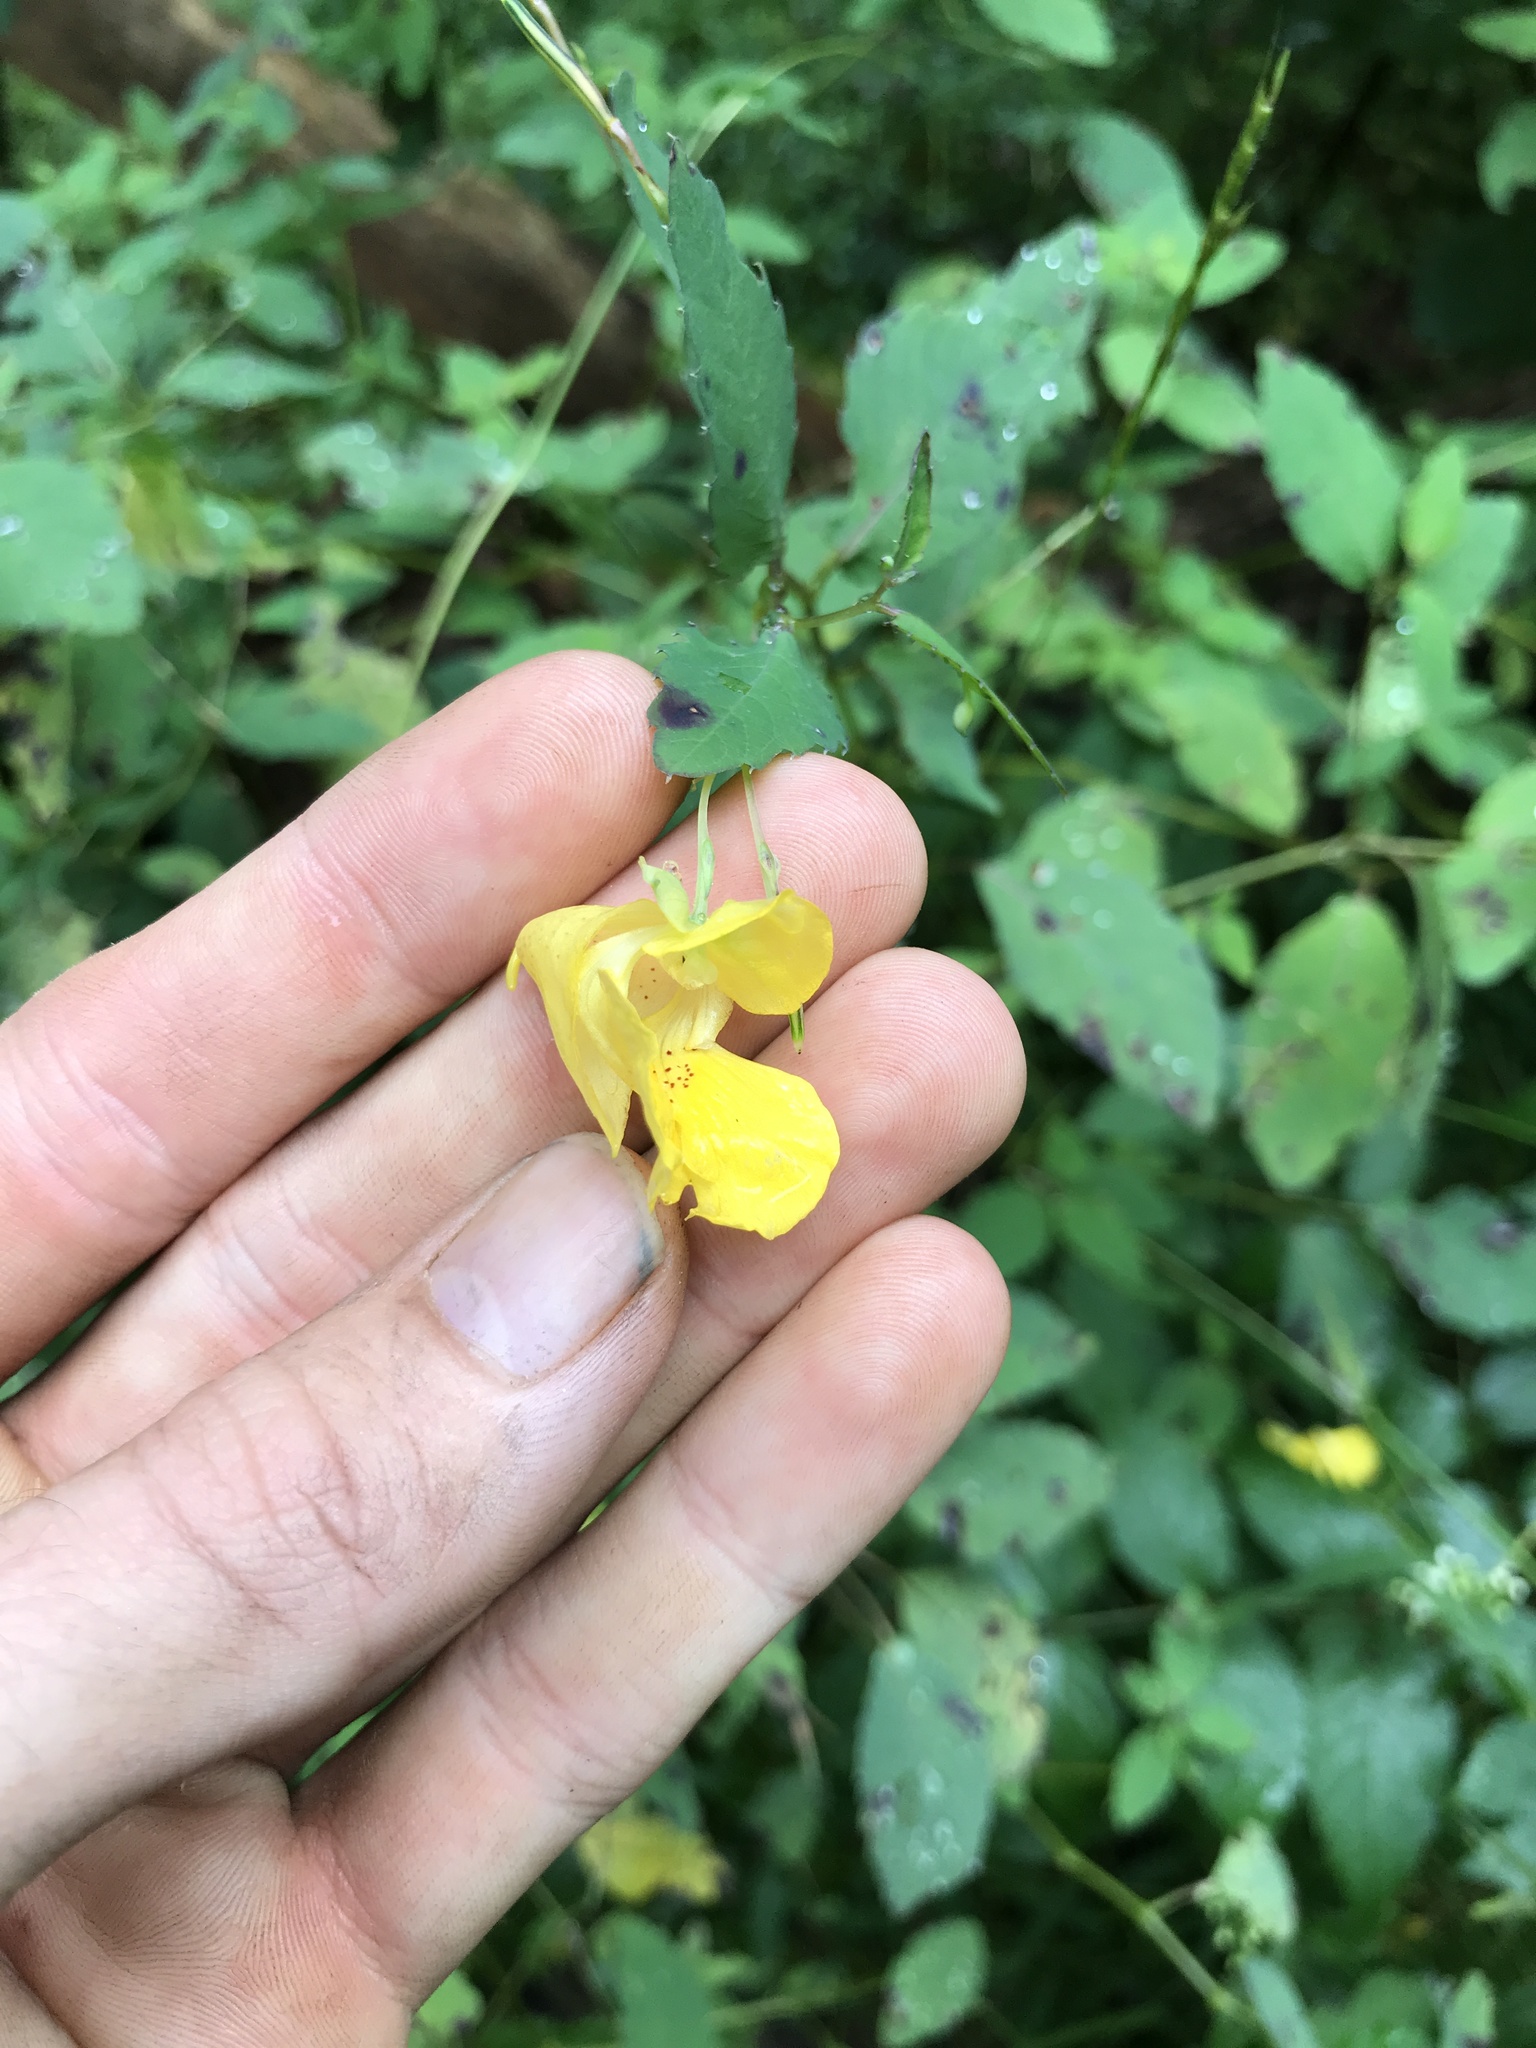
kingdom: Plantae
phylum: Tracheophyta
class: Magnoliopsida
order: Ericales
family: Balsaminaceae
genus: Impatiens
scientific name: Impatiens pallida
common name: Pale snapweed
